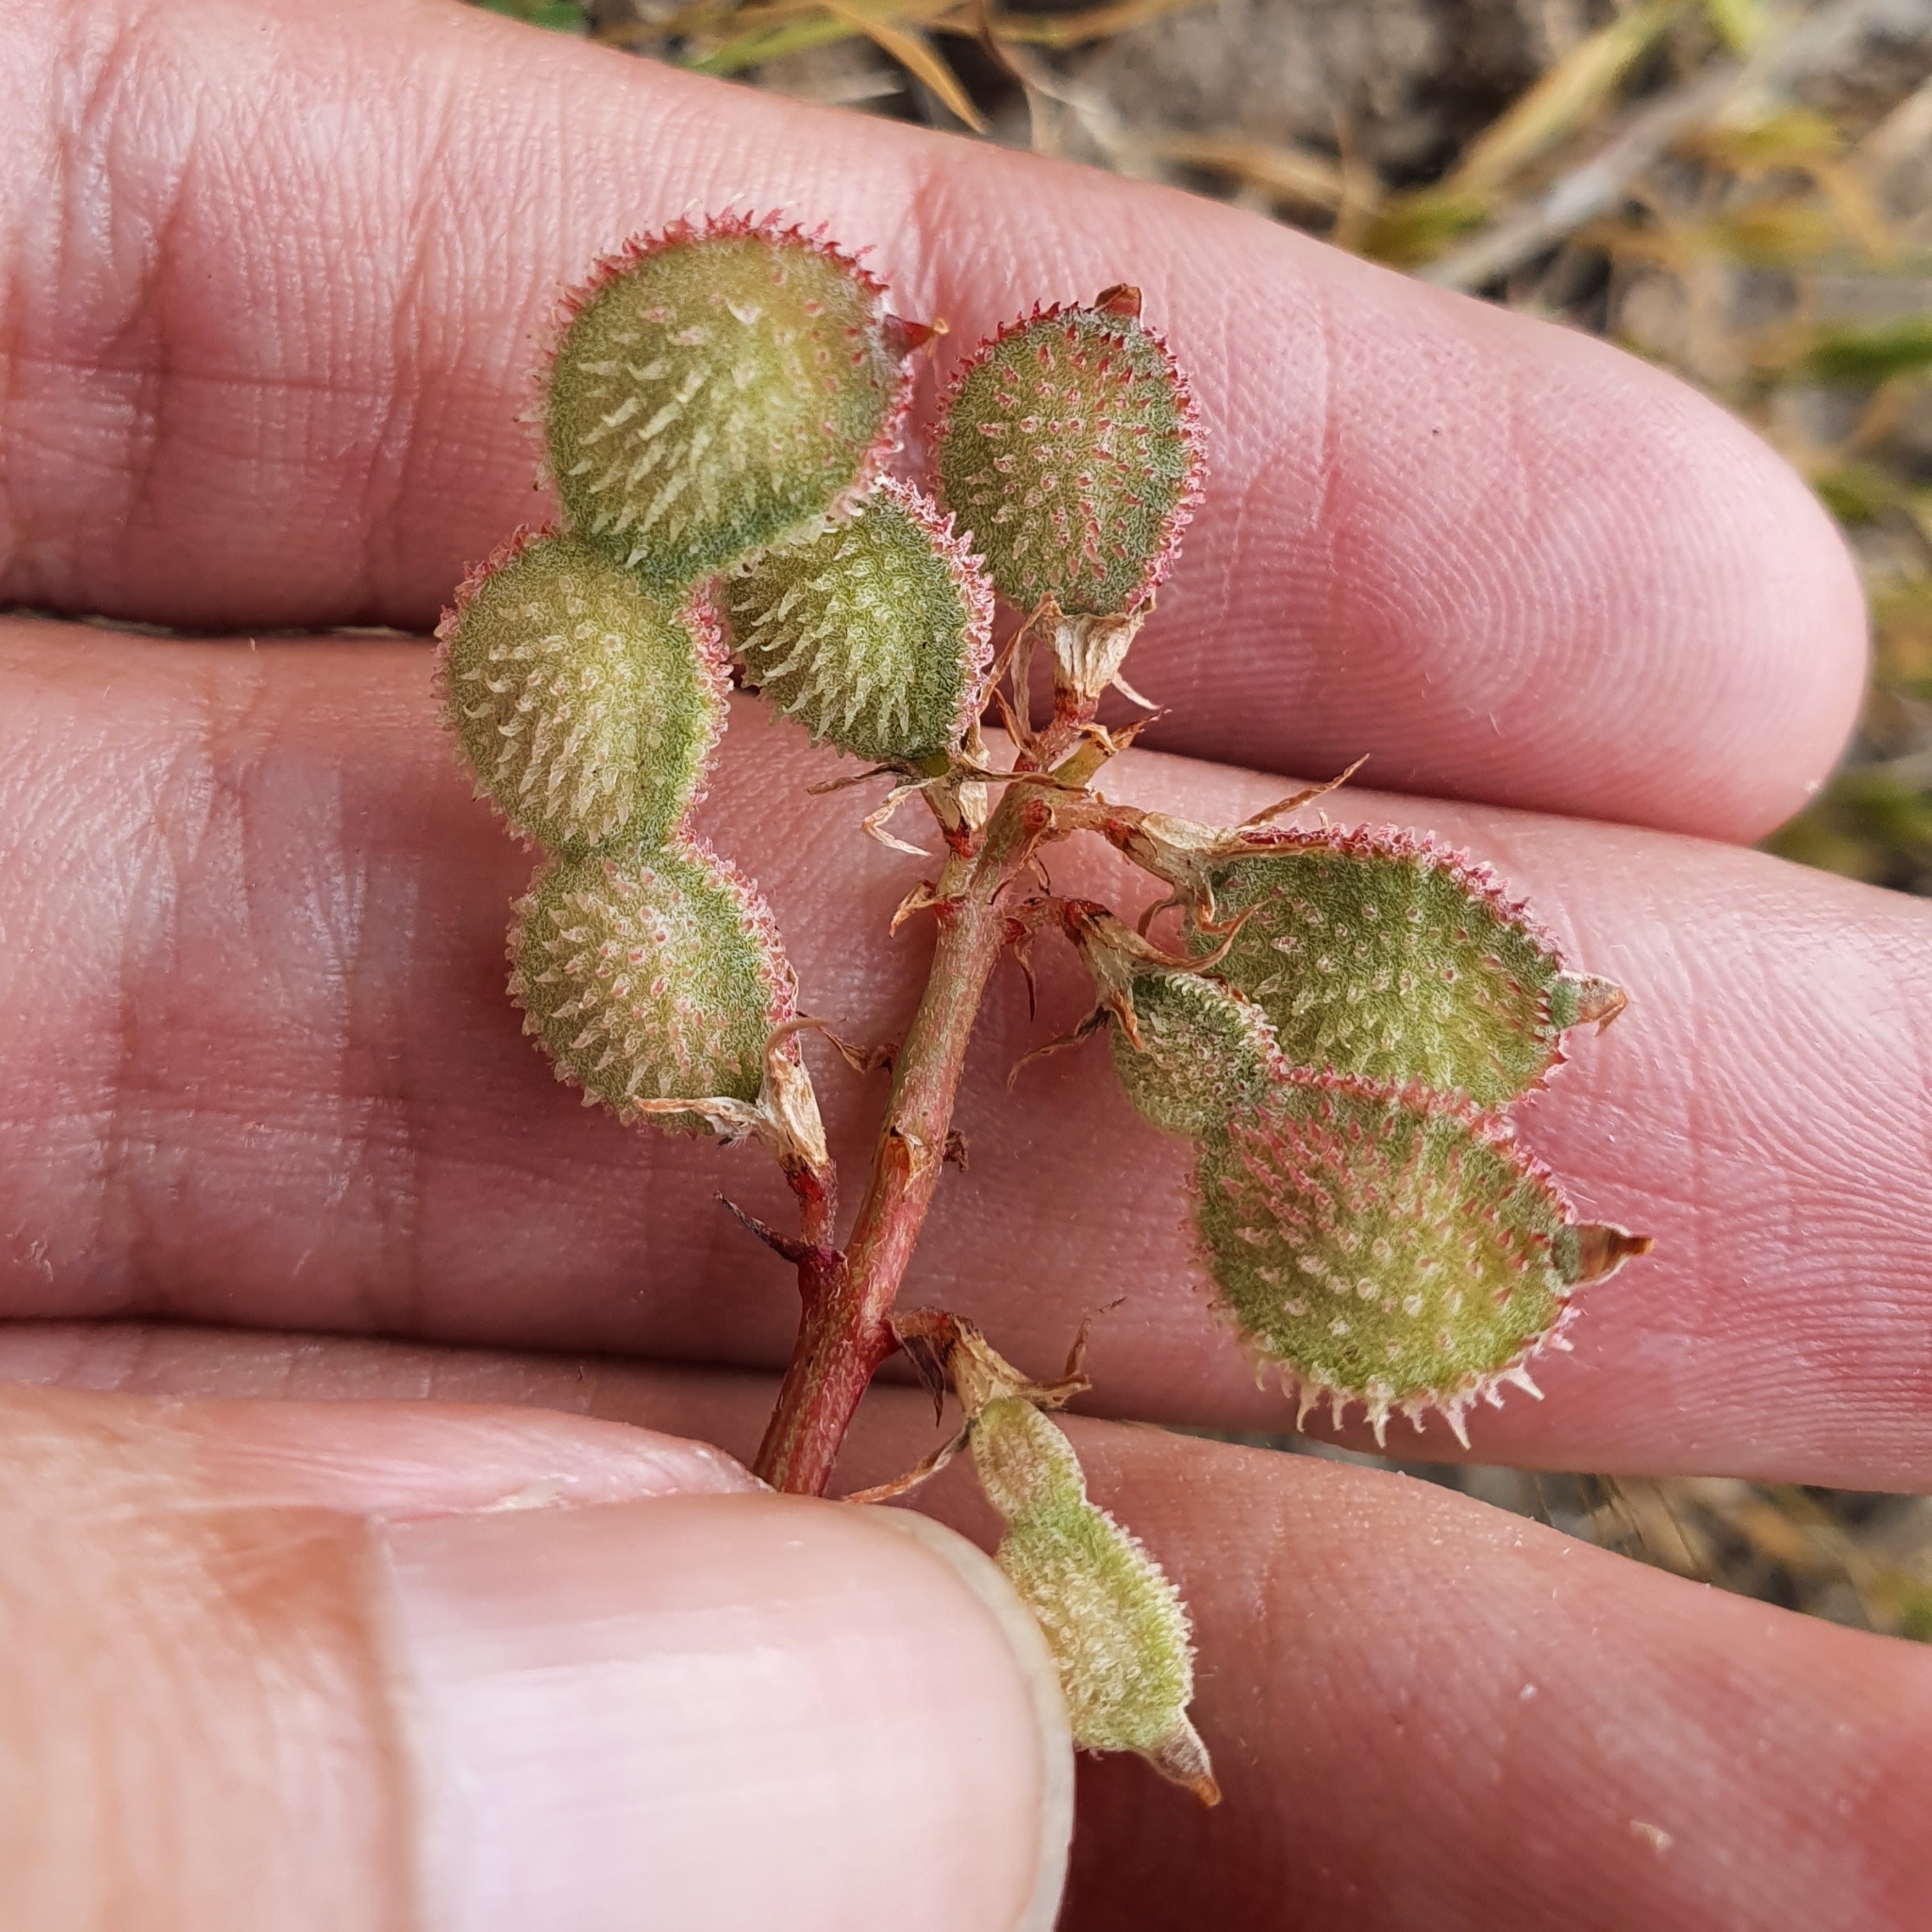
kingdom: Plantae
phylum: Tracheophyta
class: Magnoliopsida
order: Fabales
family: Fabaceae
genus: Sulla
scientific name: Sulla glomerata
